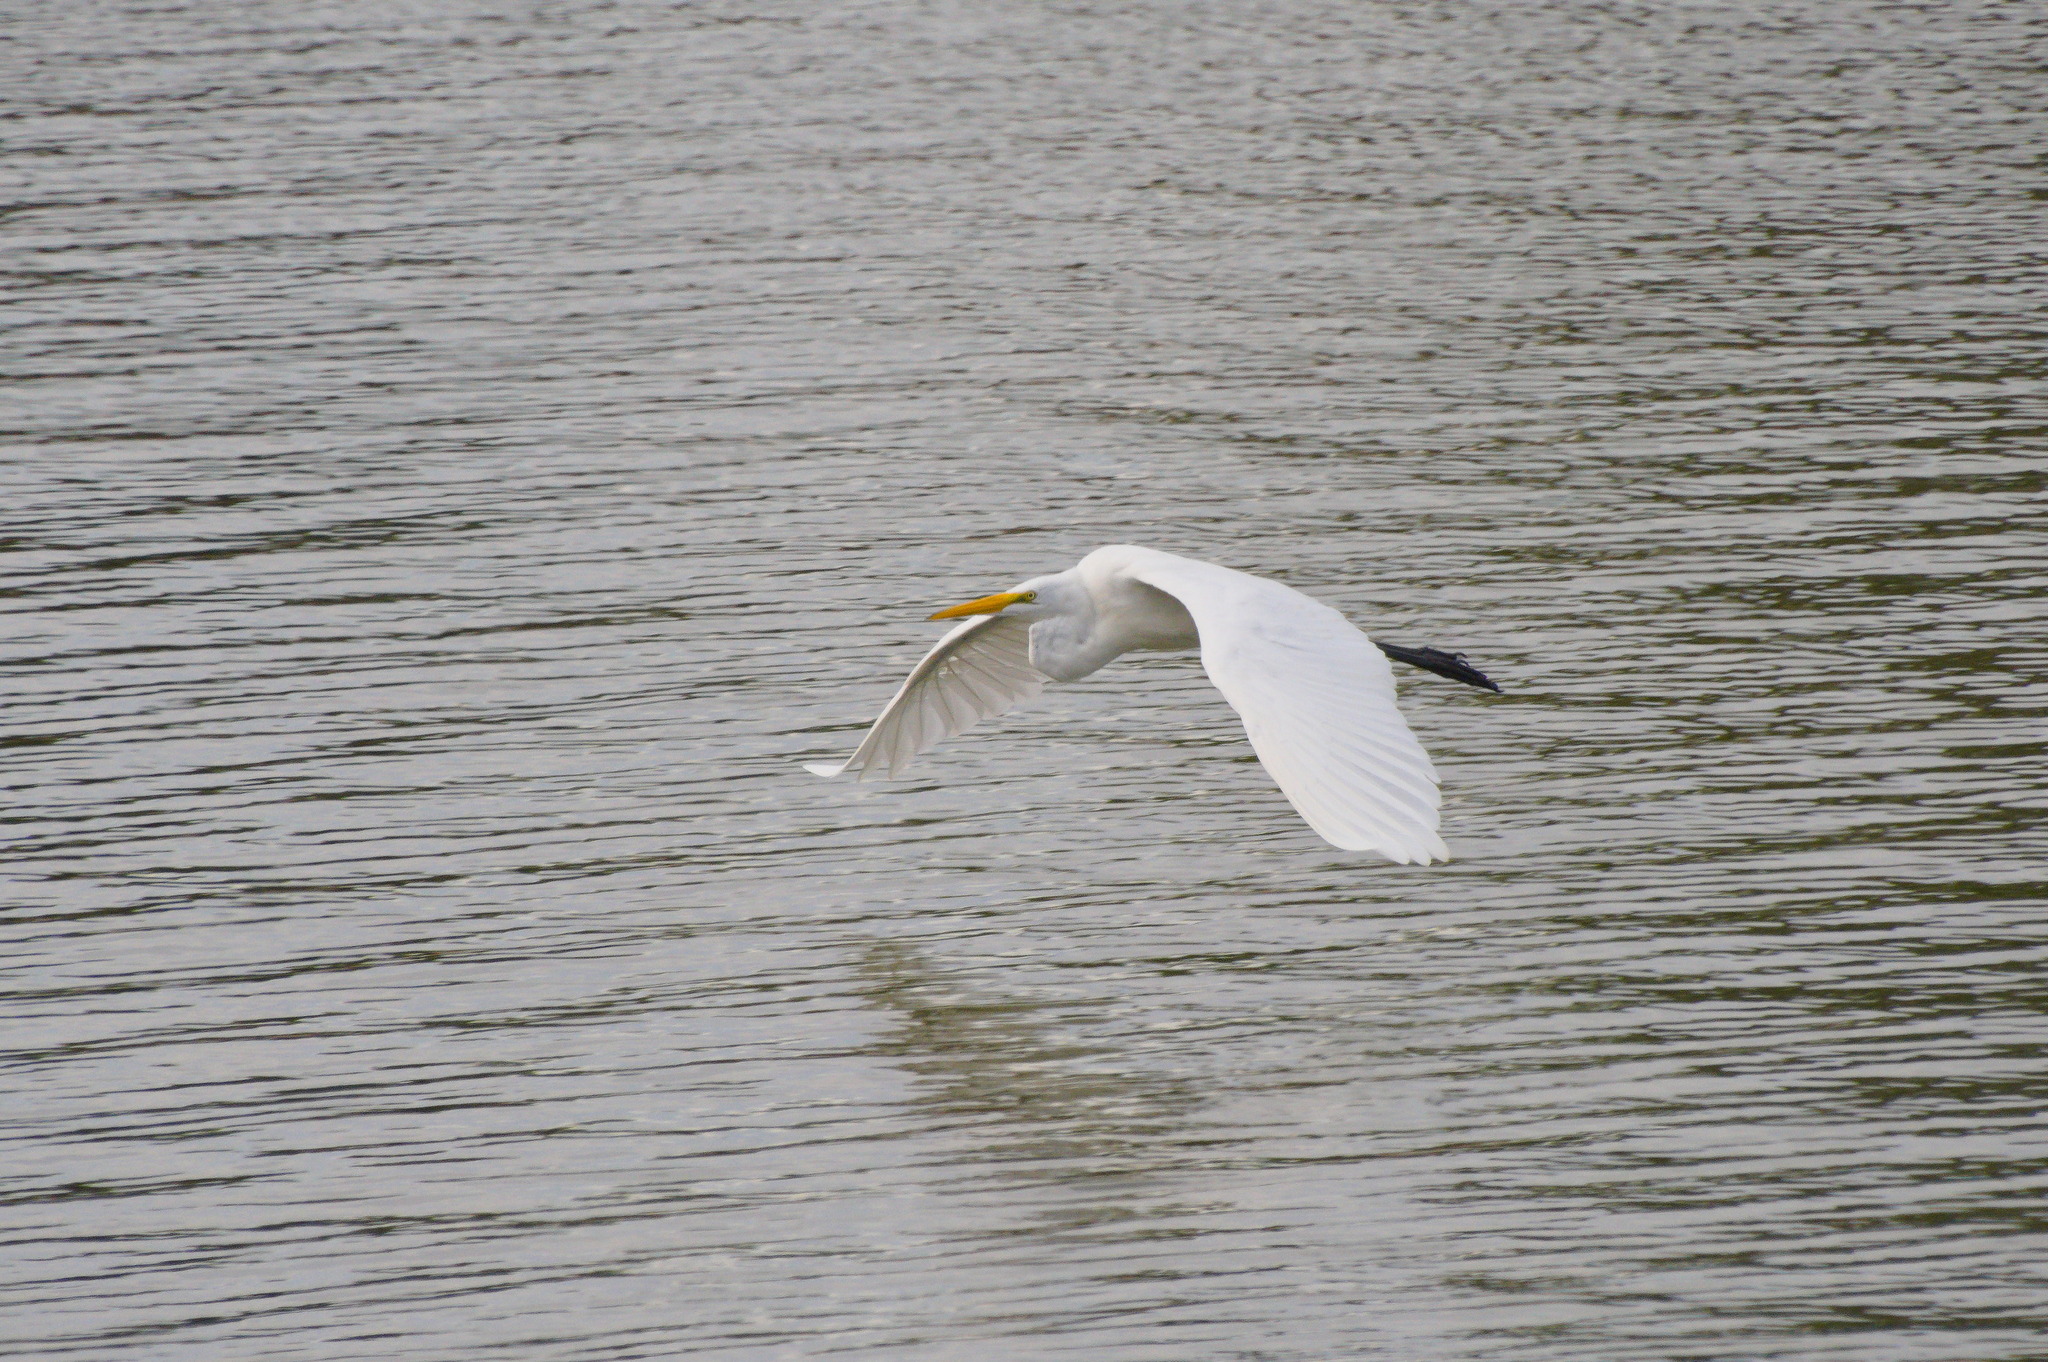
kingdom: Animalia
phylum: Chordata
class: Aves
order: Pelecaniformes
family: Ardeidae
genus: Ardea
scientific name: Ardea alba
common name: Great egret
